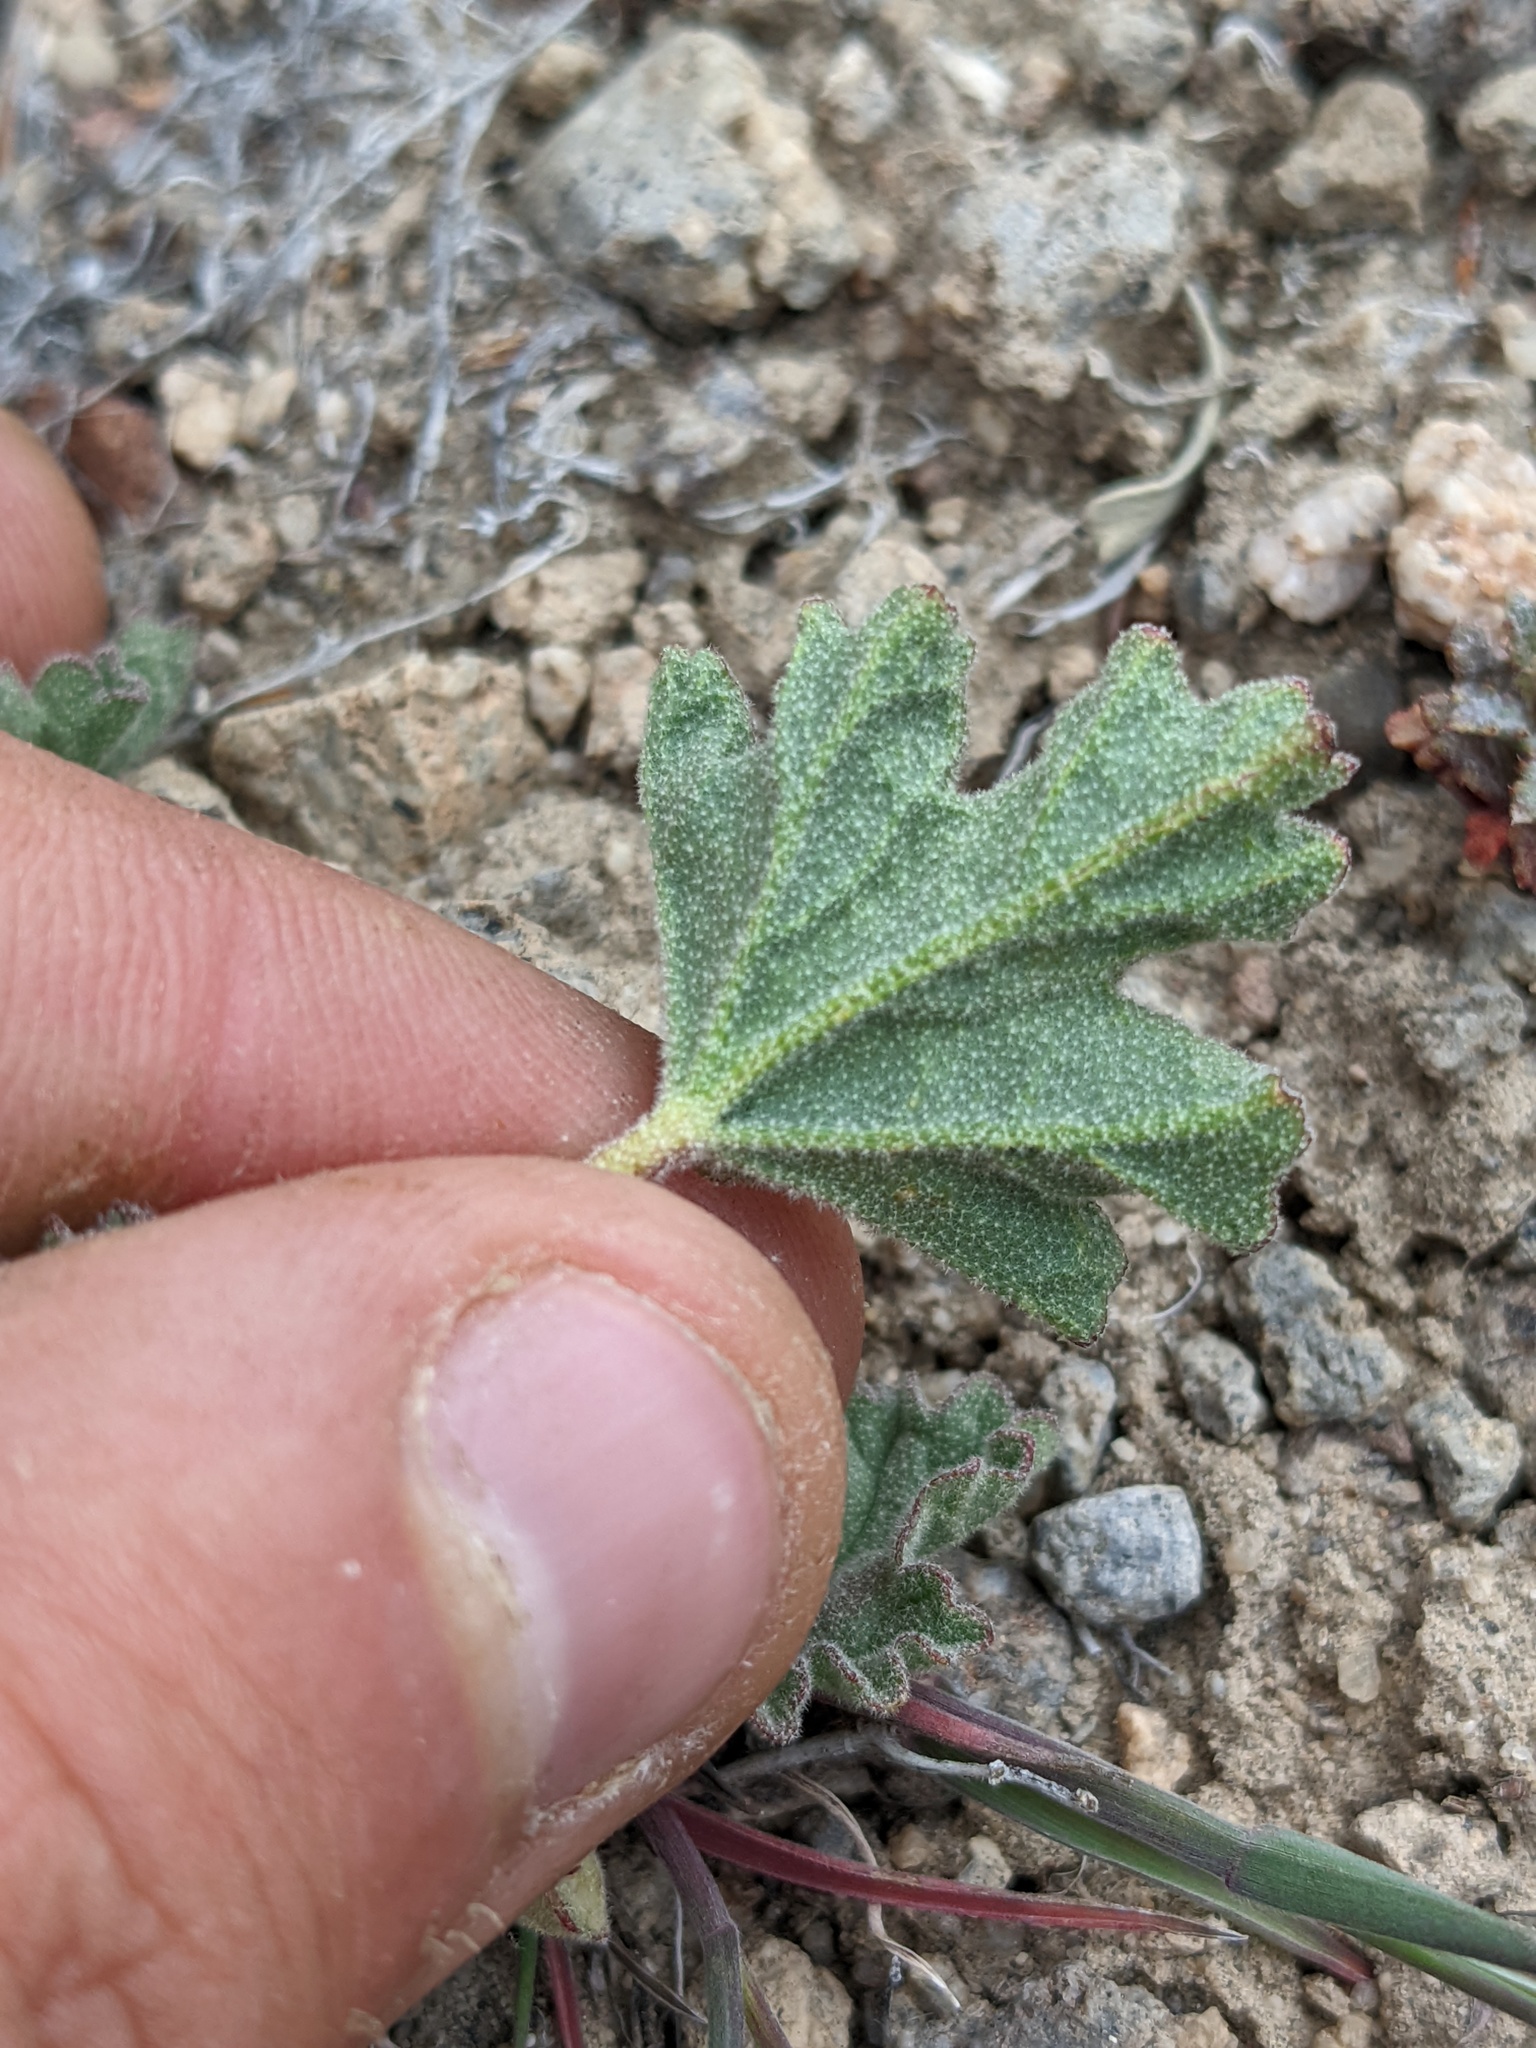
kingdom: Plantae
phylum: Tracheophyta
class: Magnoliopsida
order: Malvales
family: Malvaceae
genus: Sphaeralcea
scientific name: Sphaeralcea ambigua
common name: Apricot globe-mallow
